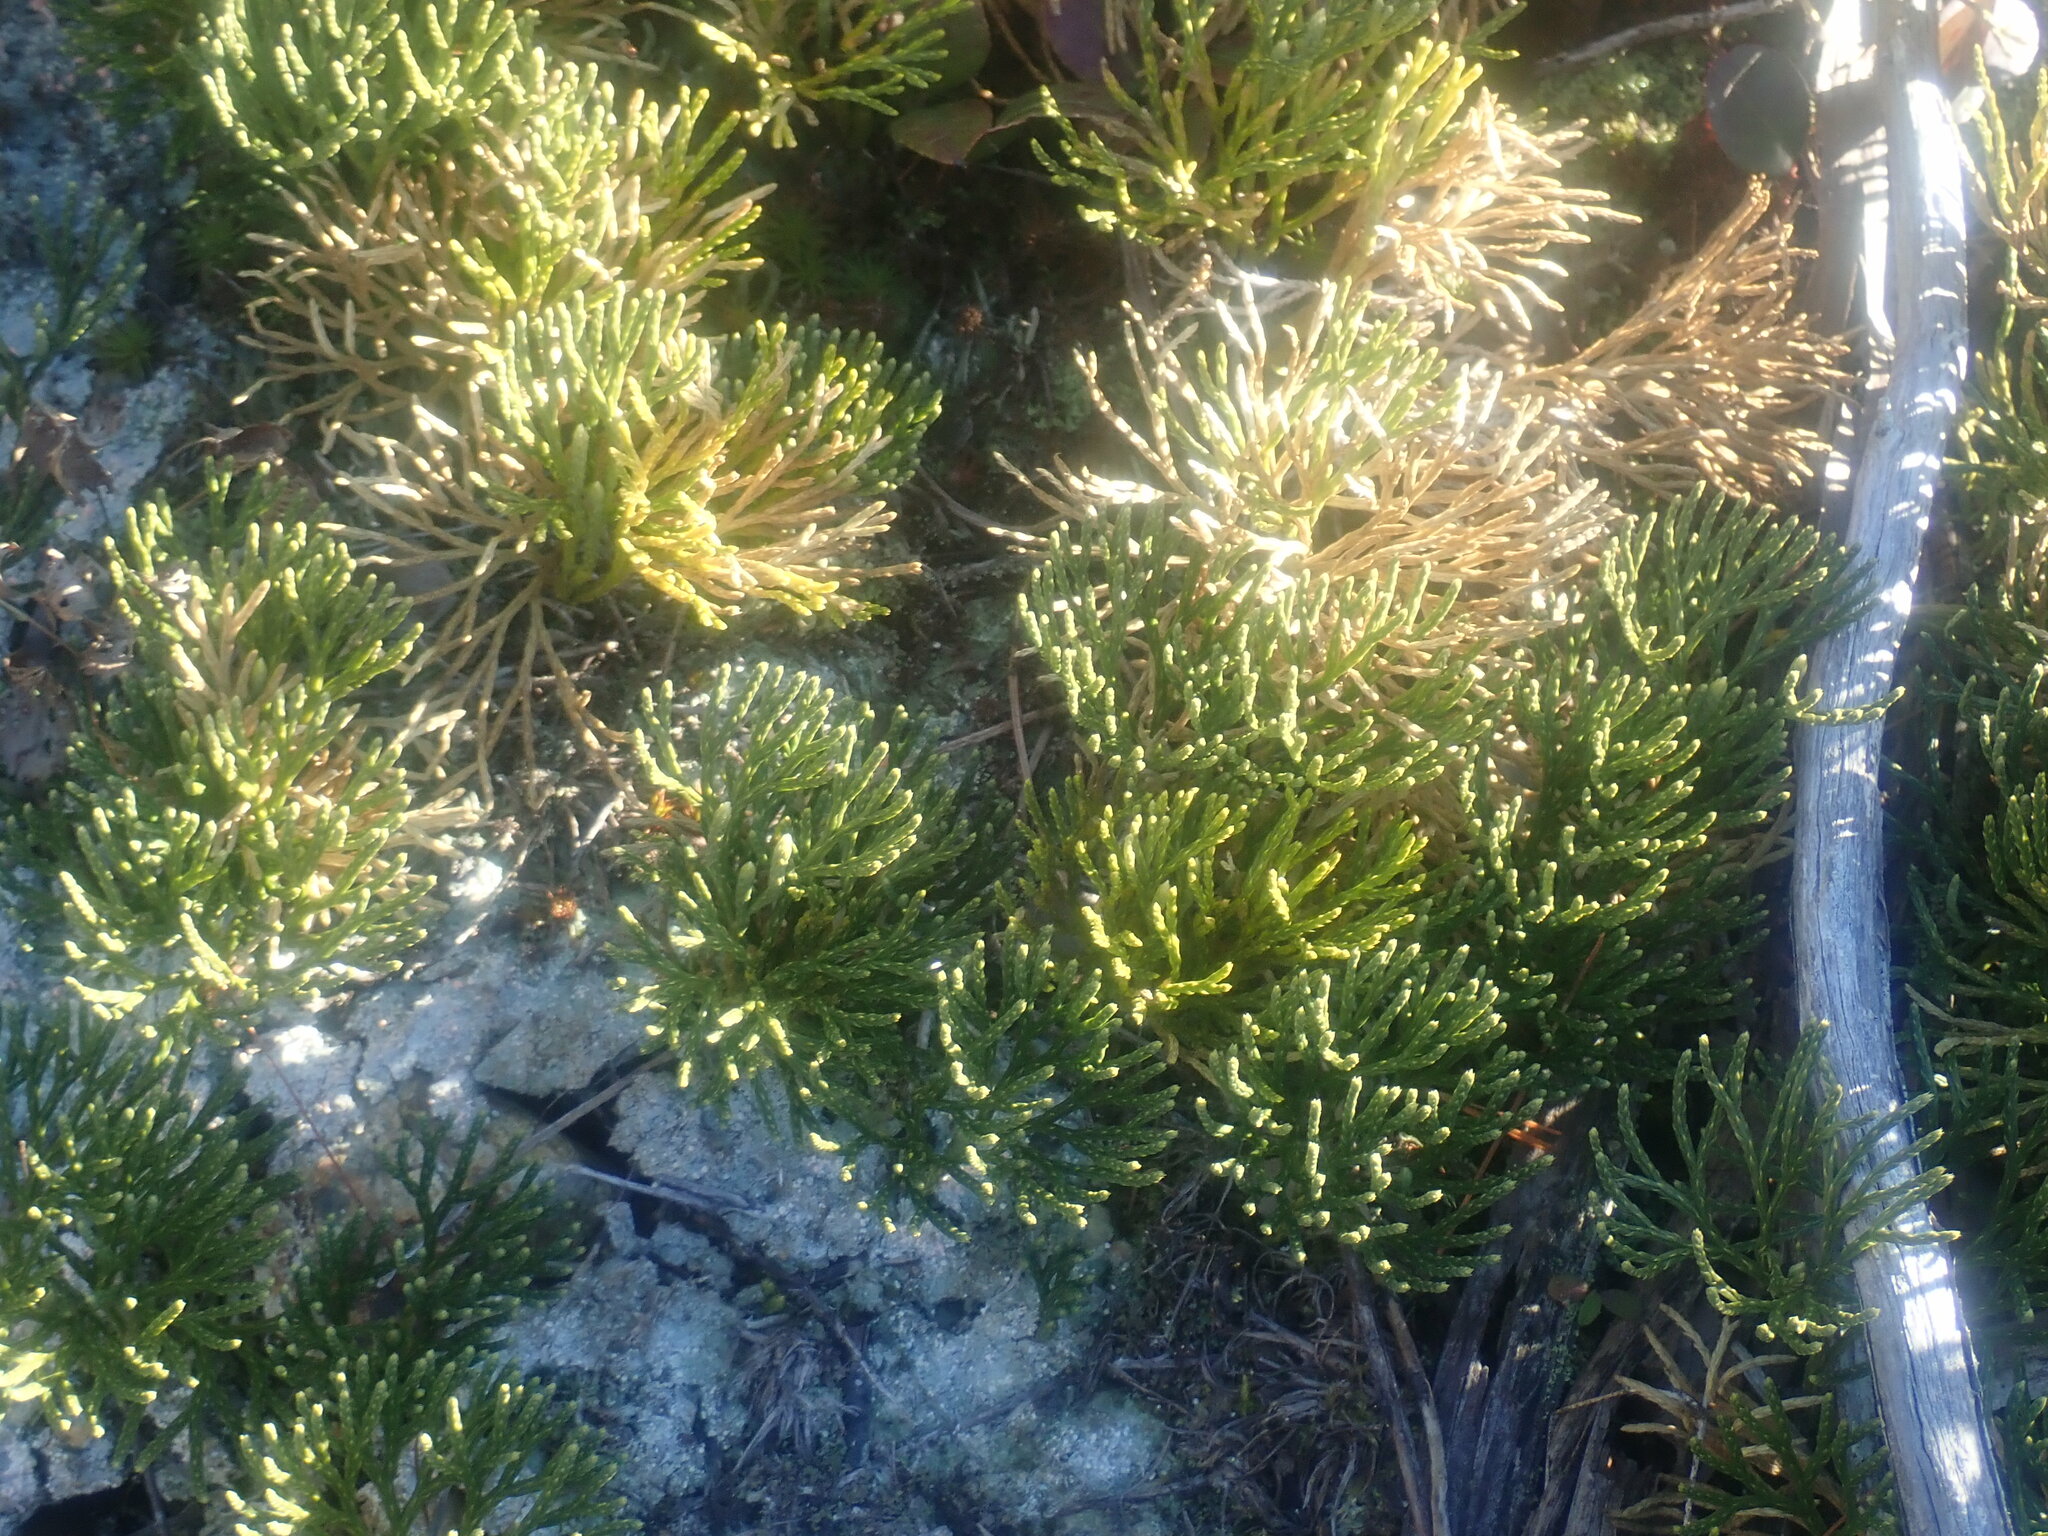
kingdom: Plantae
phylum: Tracheophyta
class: Lycopodiopsida
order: Lycopodiales
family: Lycopodiaceae
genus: Diphasiastrum
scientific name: Diphasiastrum tristachyum
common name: Blue ground-cedar
